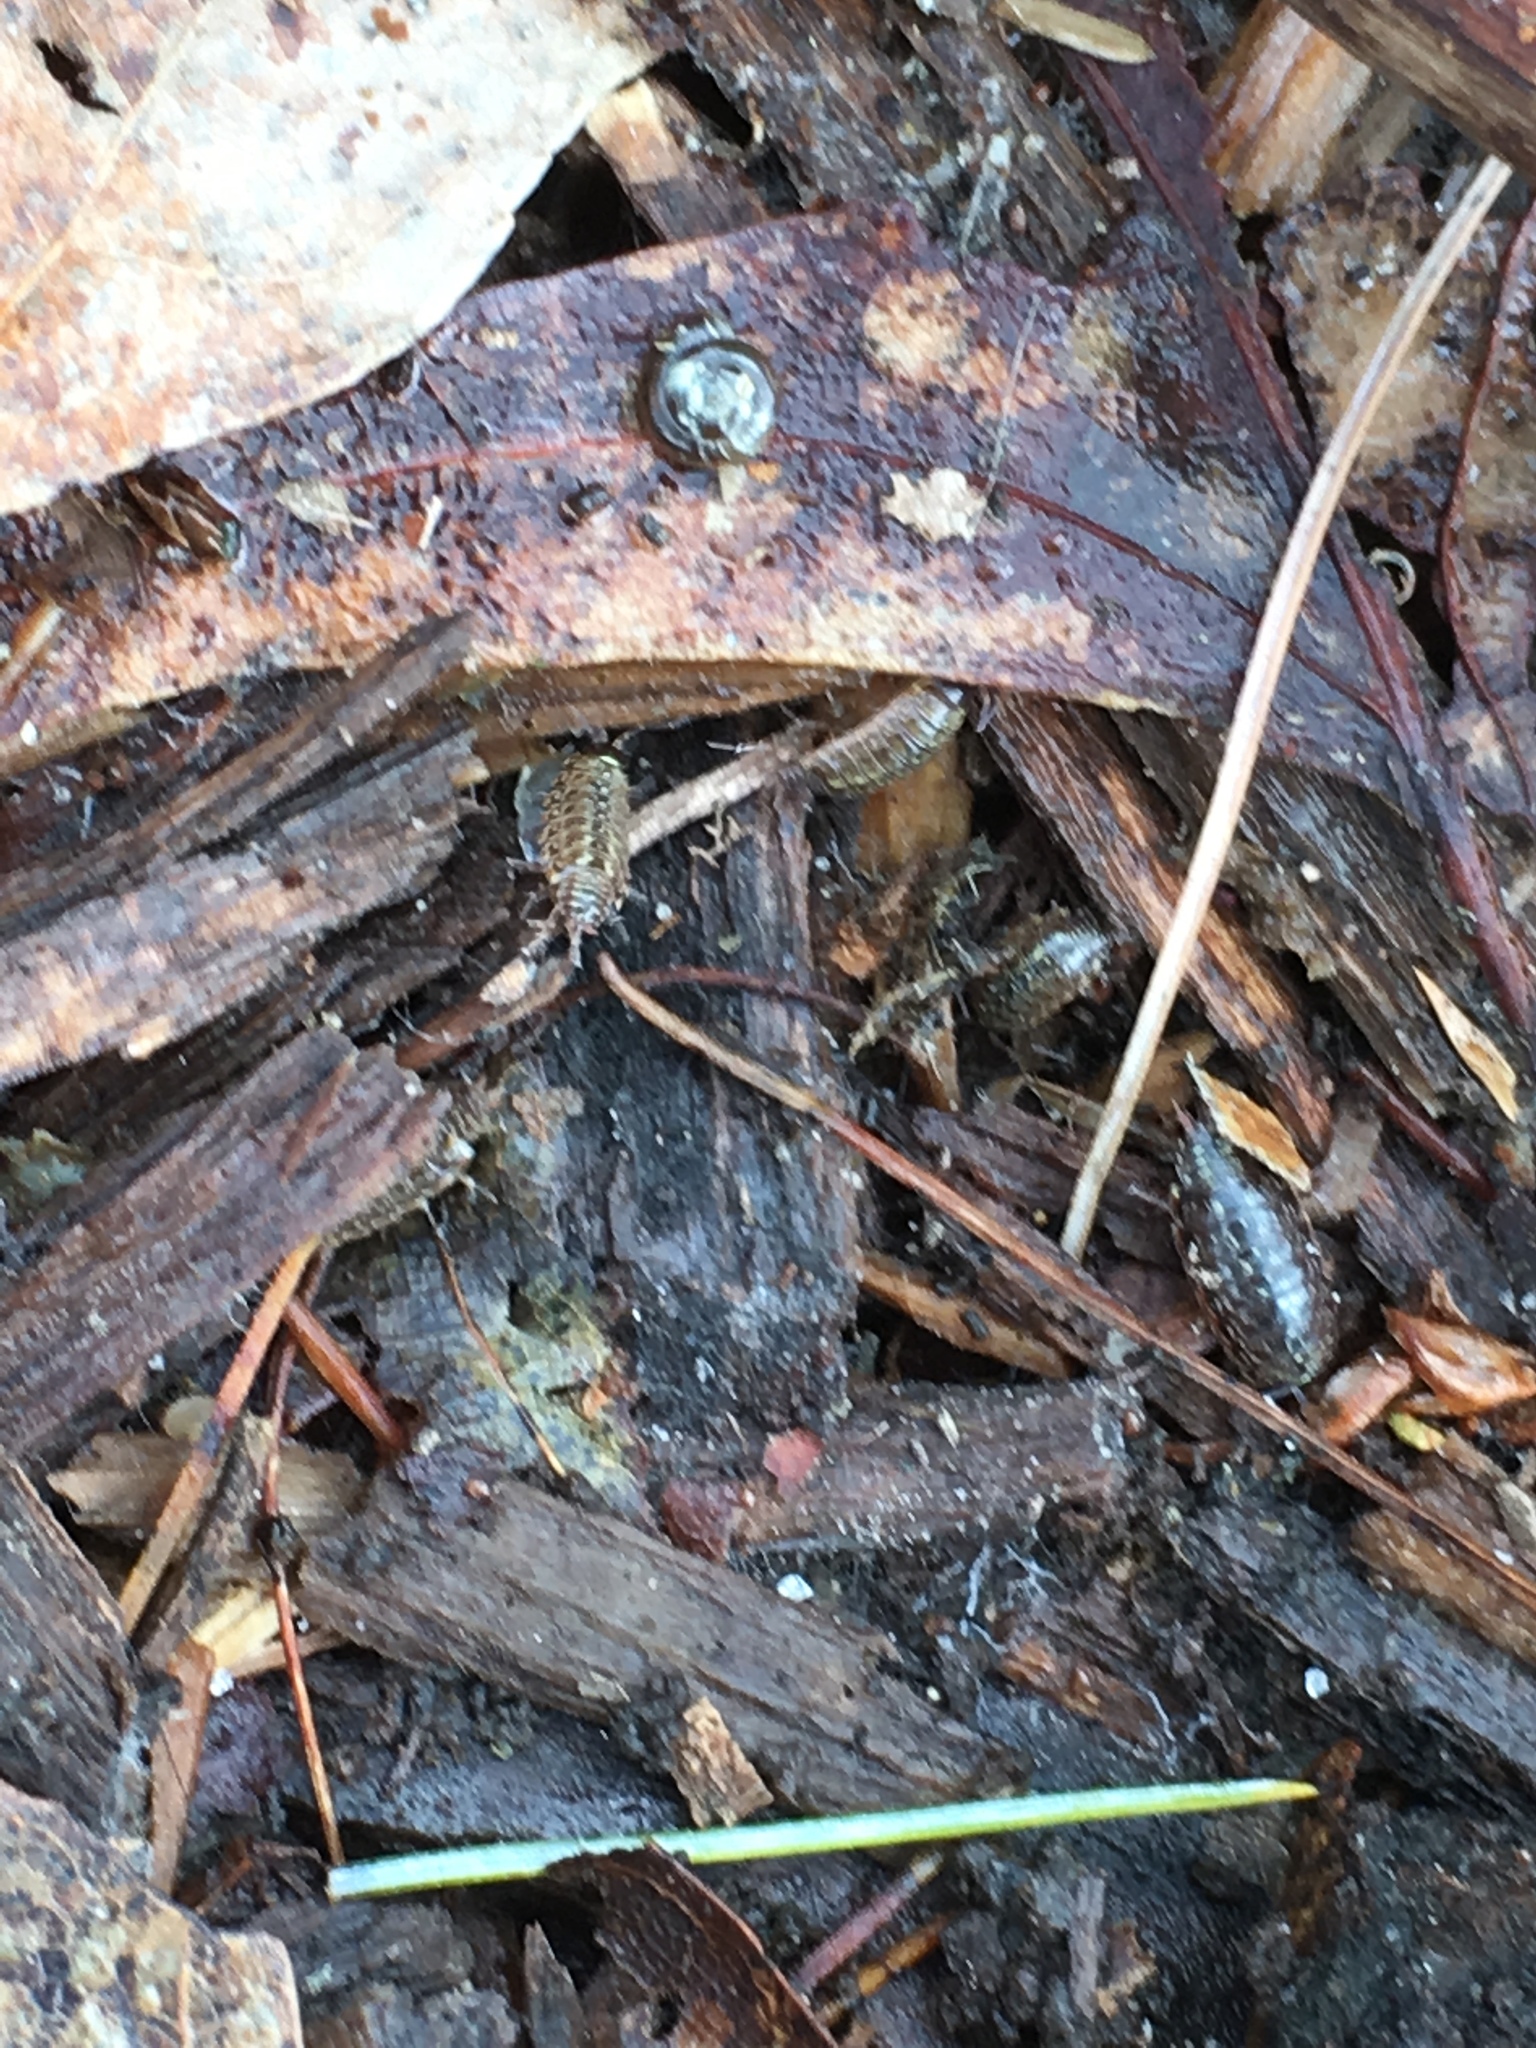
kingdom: Animalia
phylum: Arthropoda
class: Malacostraca
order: Isopoda
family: Philosciidae
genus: Philoscia
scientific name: Philoscia muscorum
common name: Common striped woodlouse
